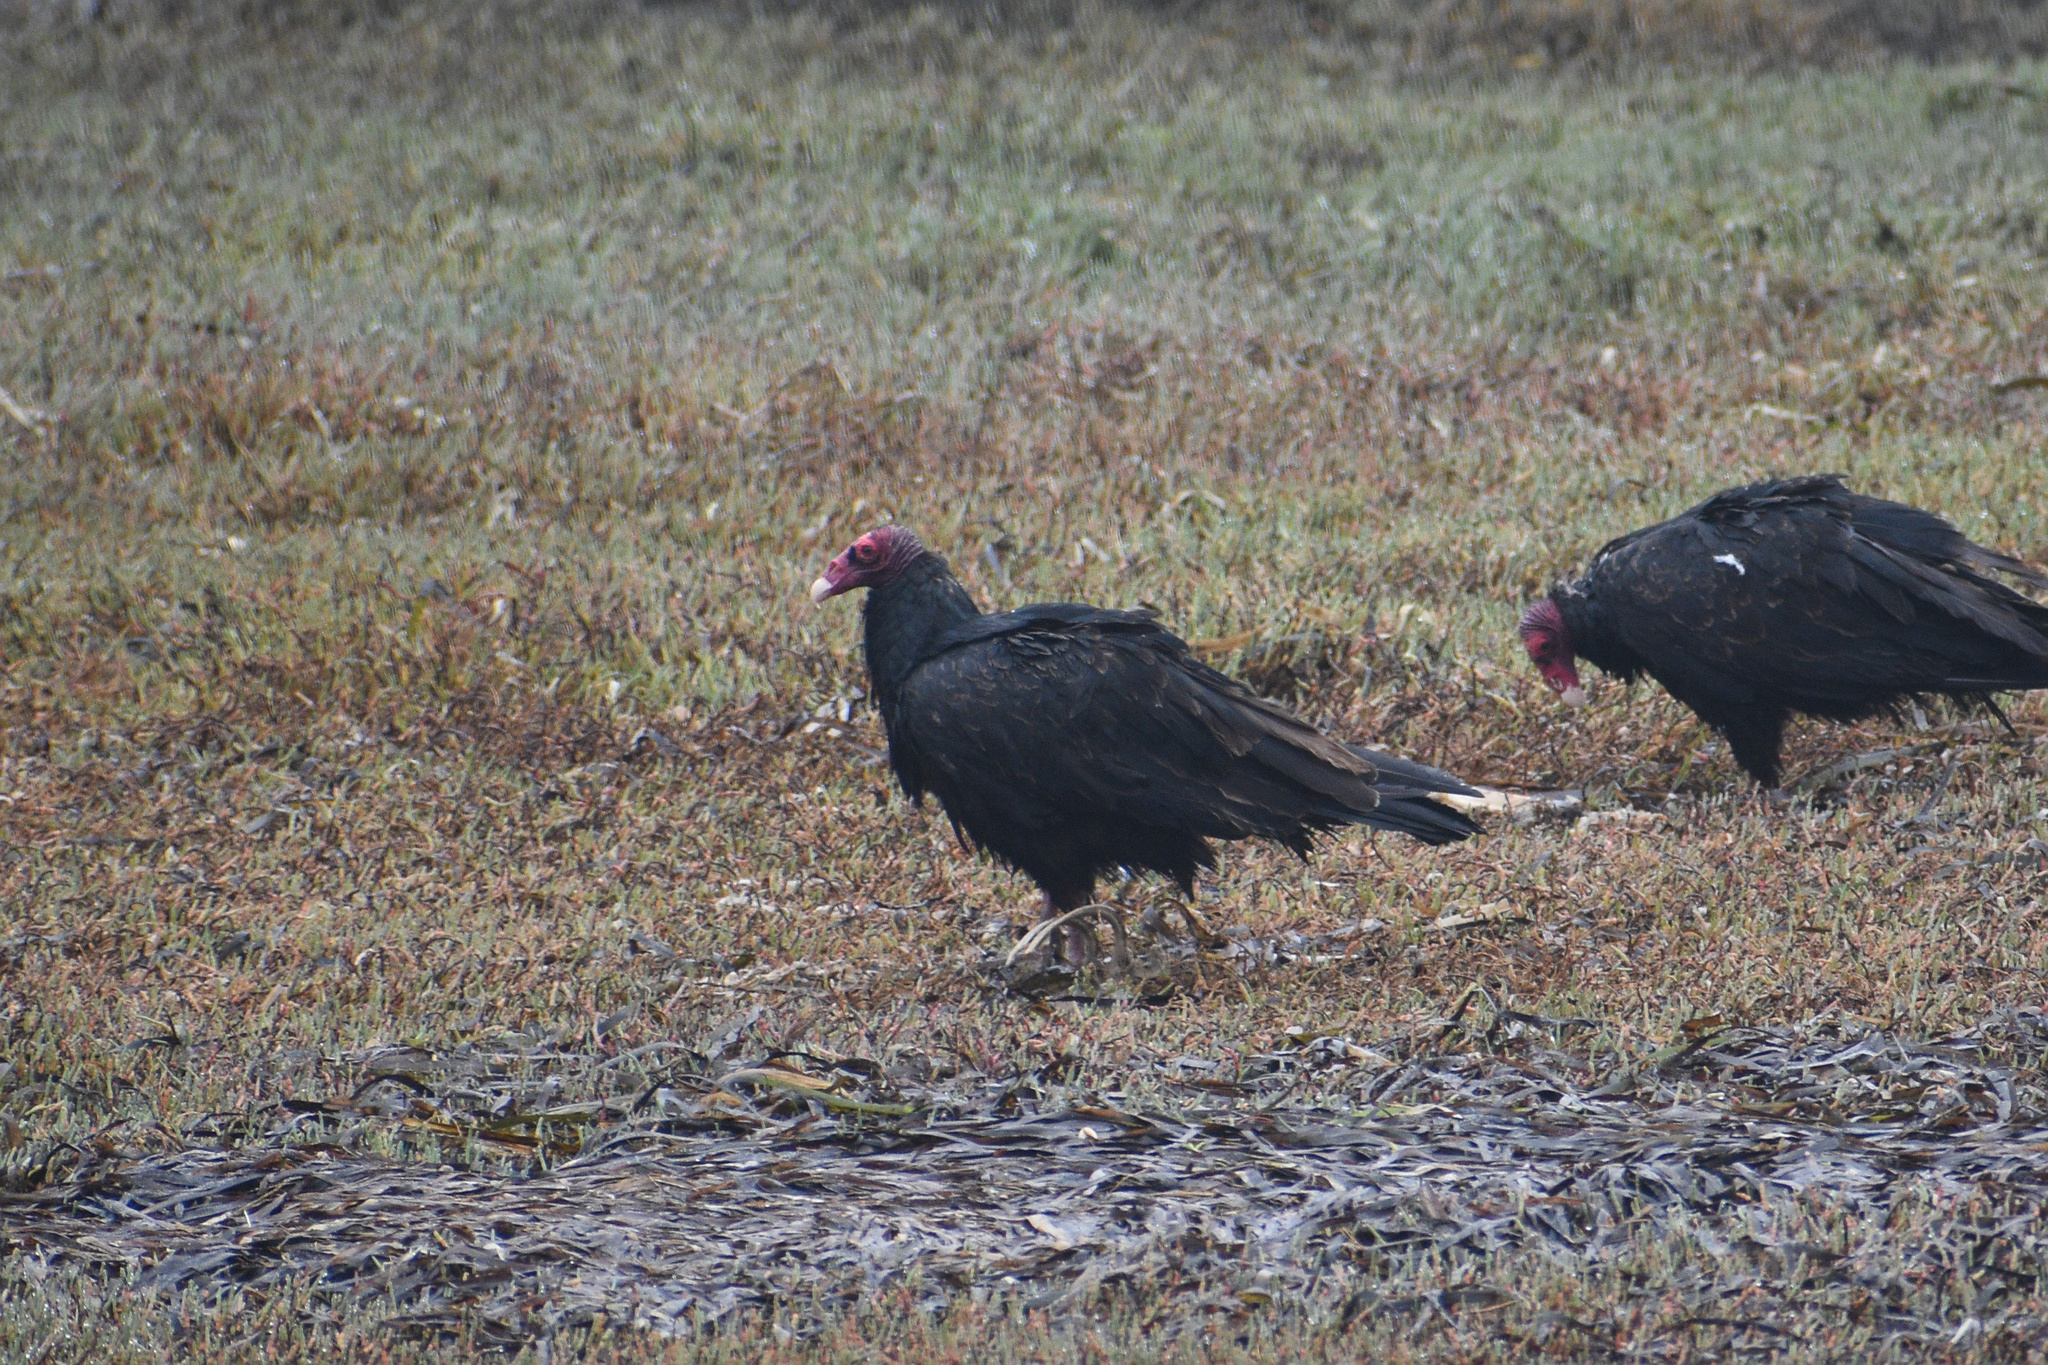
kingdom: Animalia
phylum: Chordata
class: Aves
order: Accipitriformes
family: Cathartidae
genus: Cathartes
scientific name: Cathartes aura
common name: Turkey vulture
